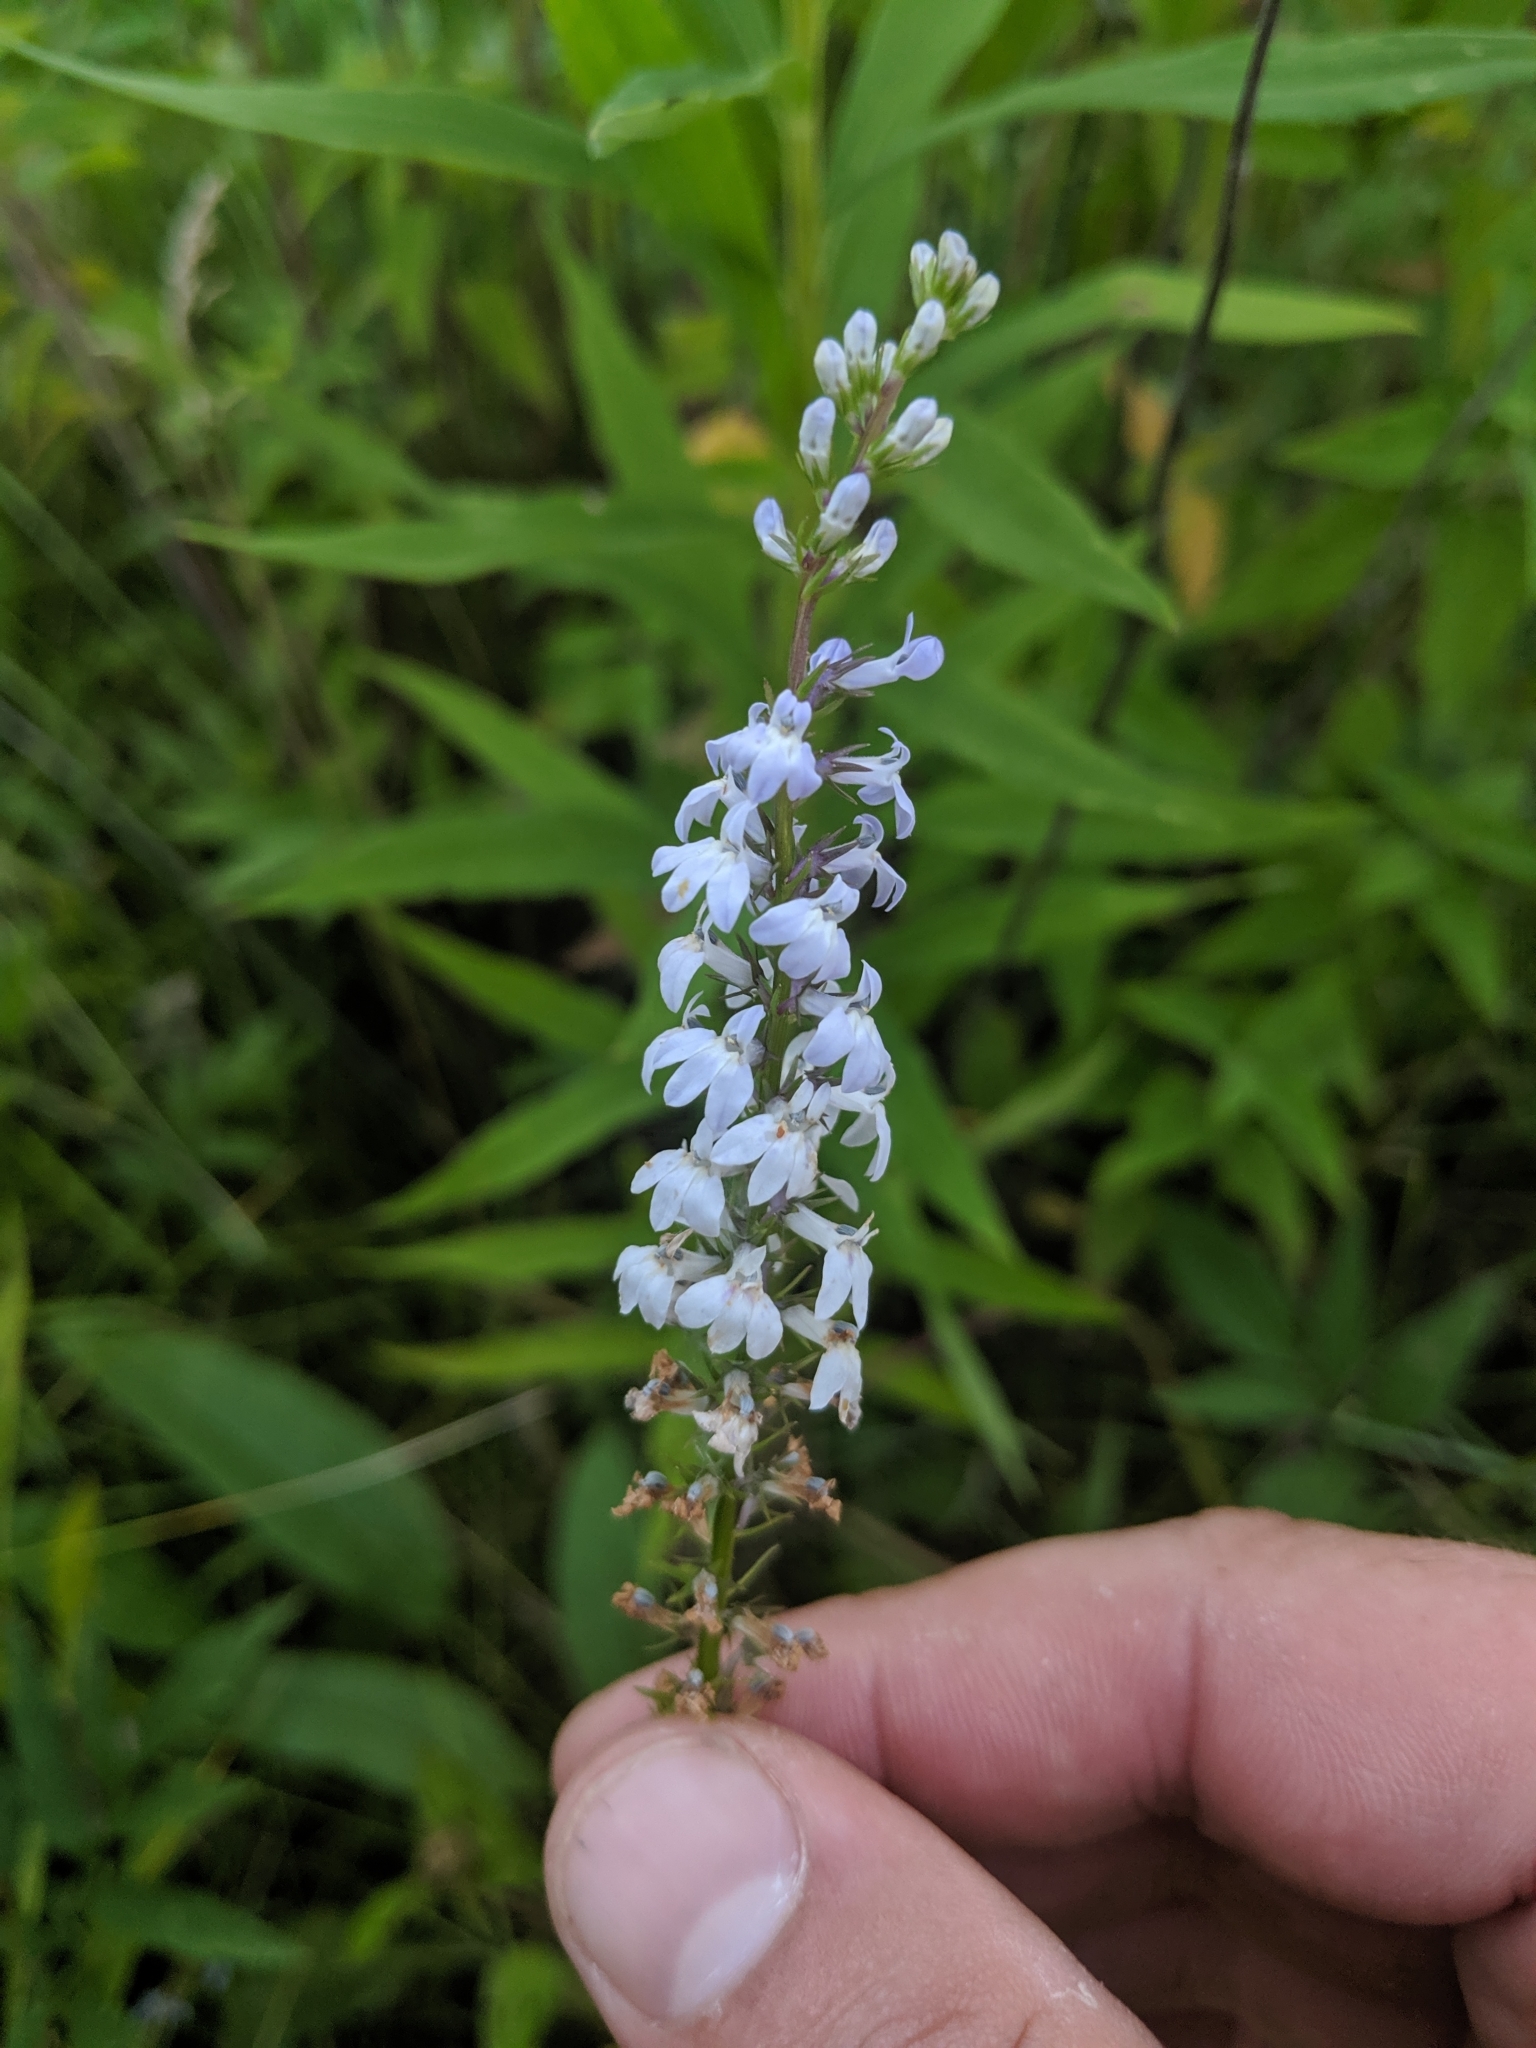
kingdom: Plantae
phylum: Tracheophyta
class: Magnoliopsida
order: Asterales
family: Campanulaceae
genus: Lobelia
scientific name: Lobelia spicata
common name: Pale-spike lobelia
